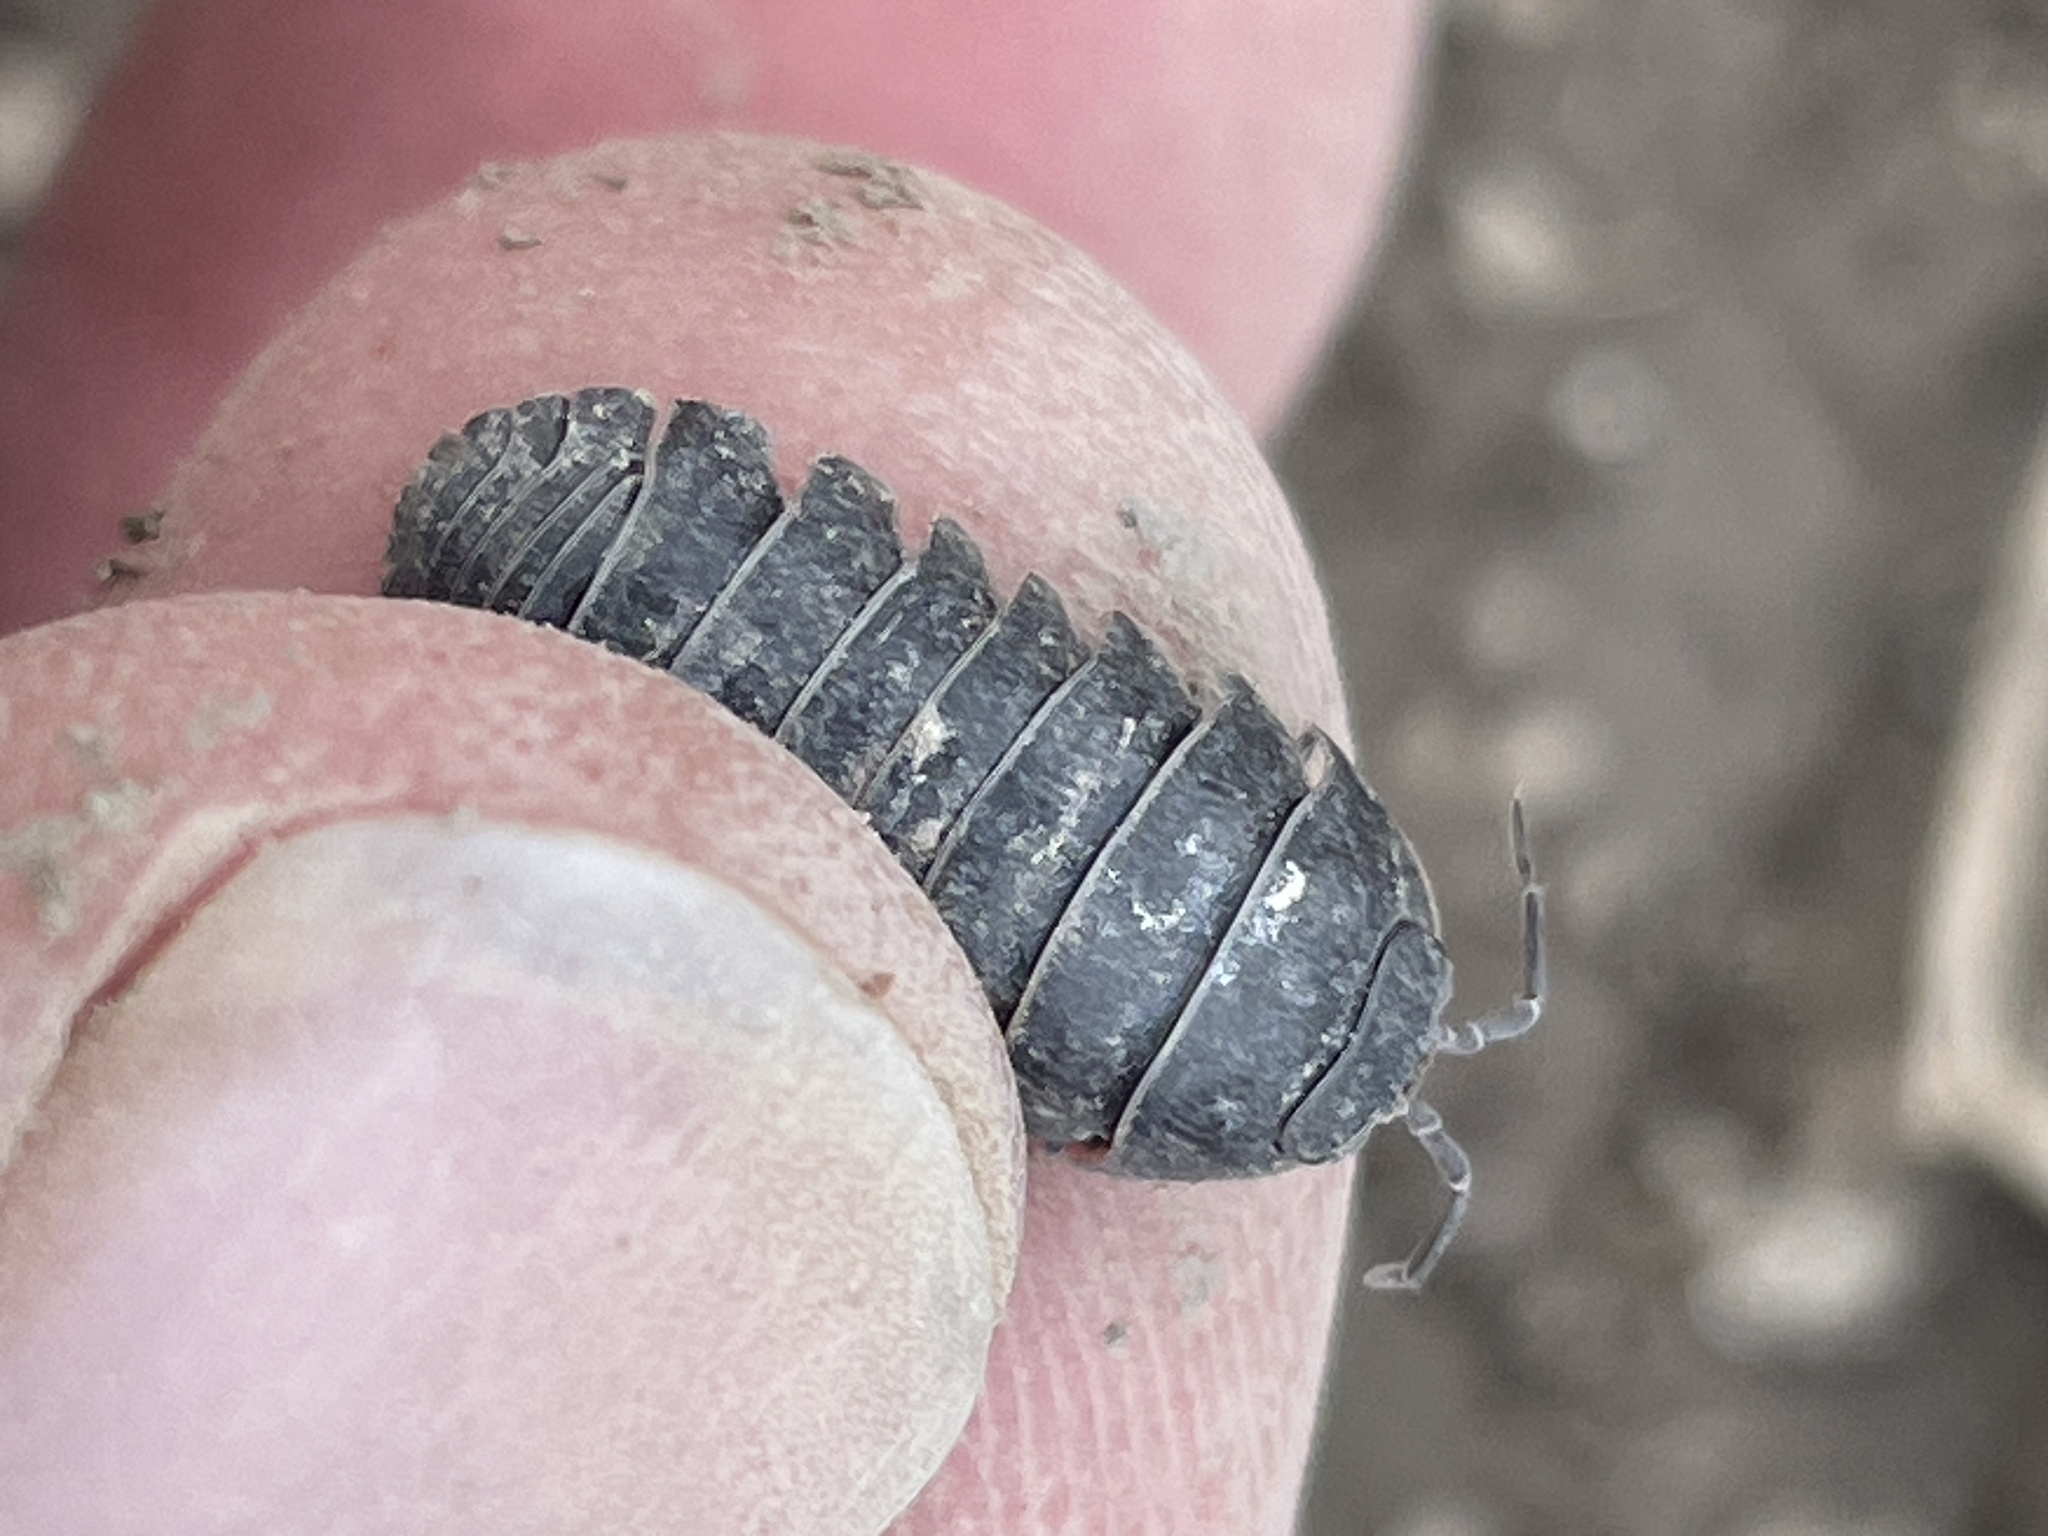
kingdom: Animalia
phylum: Arthropoda
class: Malacostraca
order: Isopoda
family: Armadillidiidae
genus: Armadillidium
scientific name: Armadillidium vulgare
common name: Common pill woodlouse
